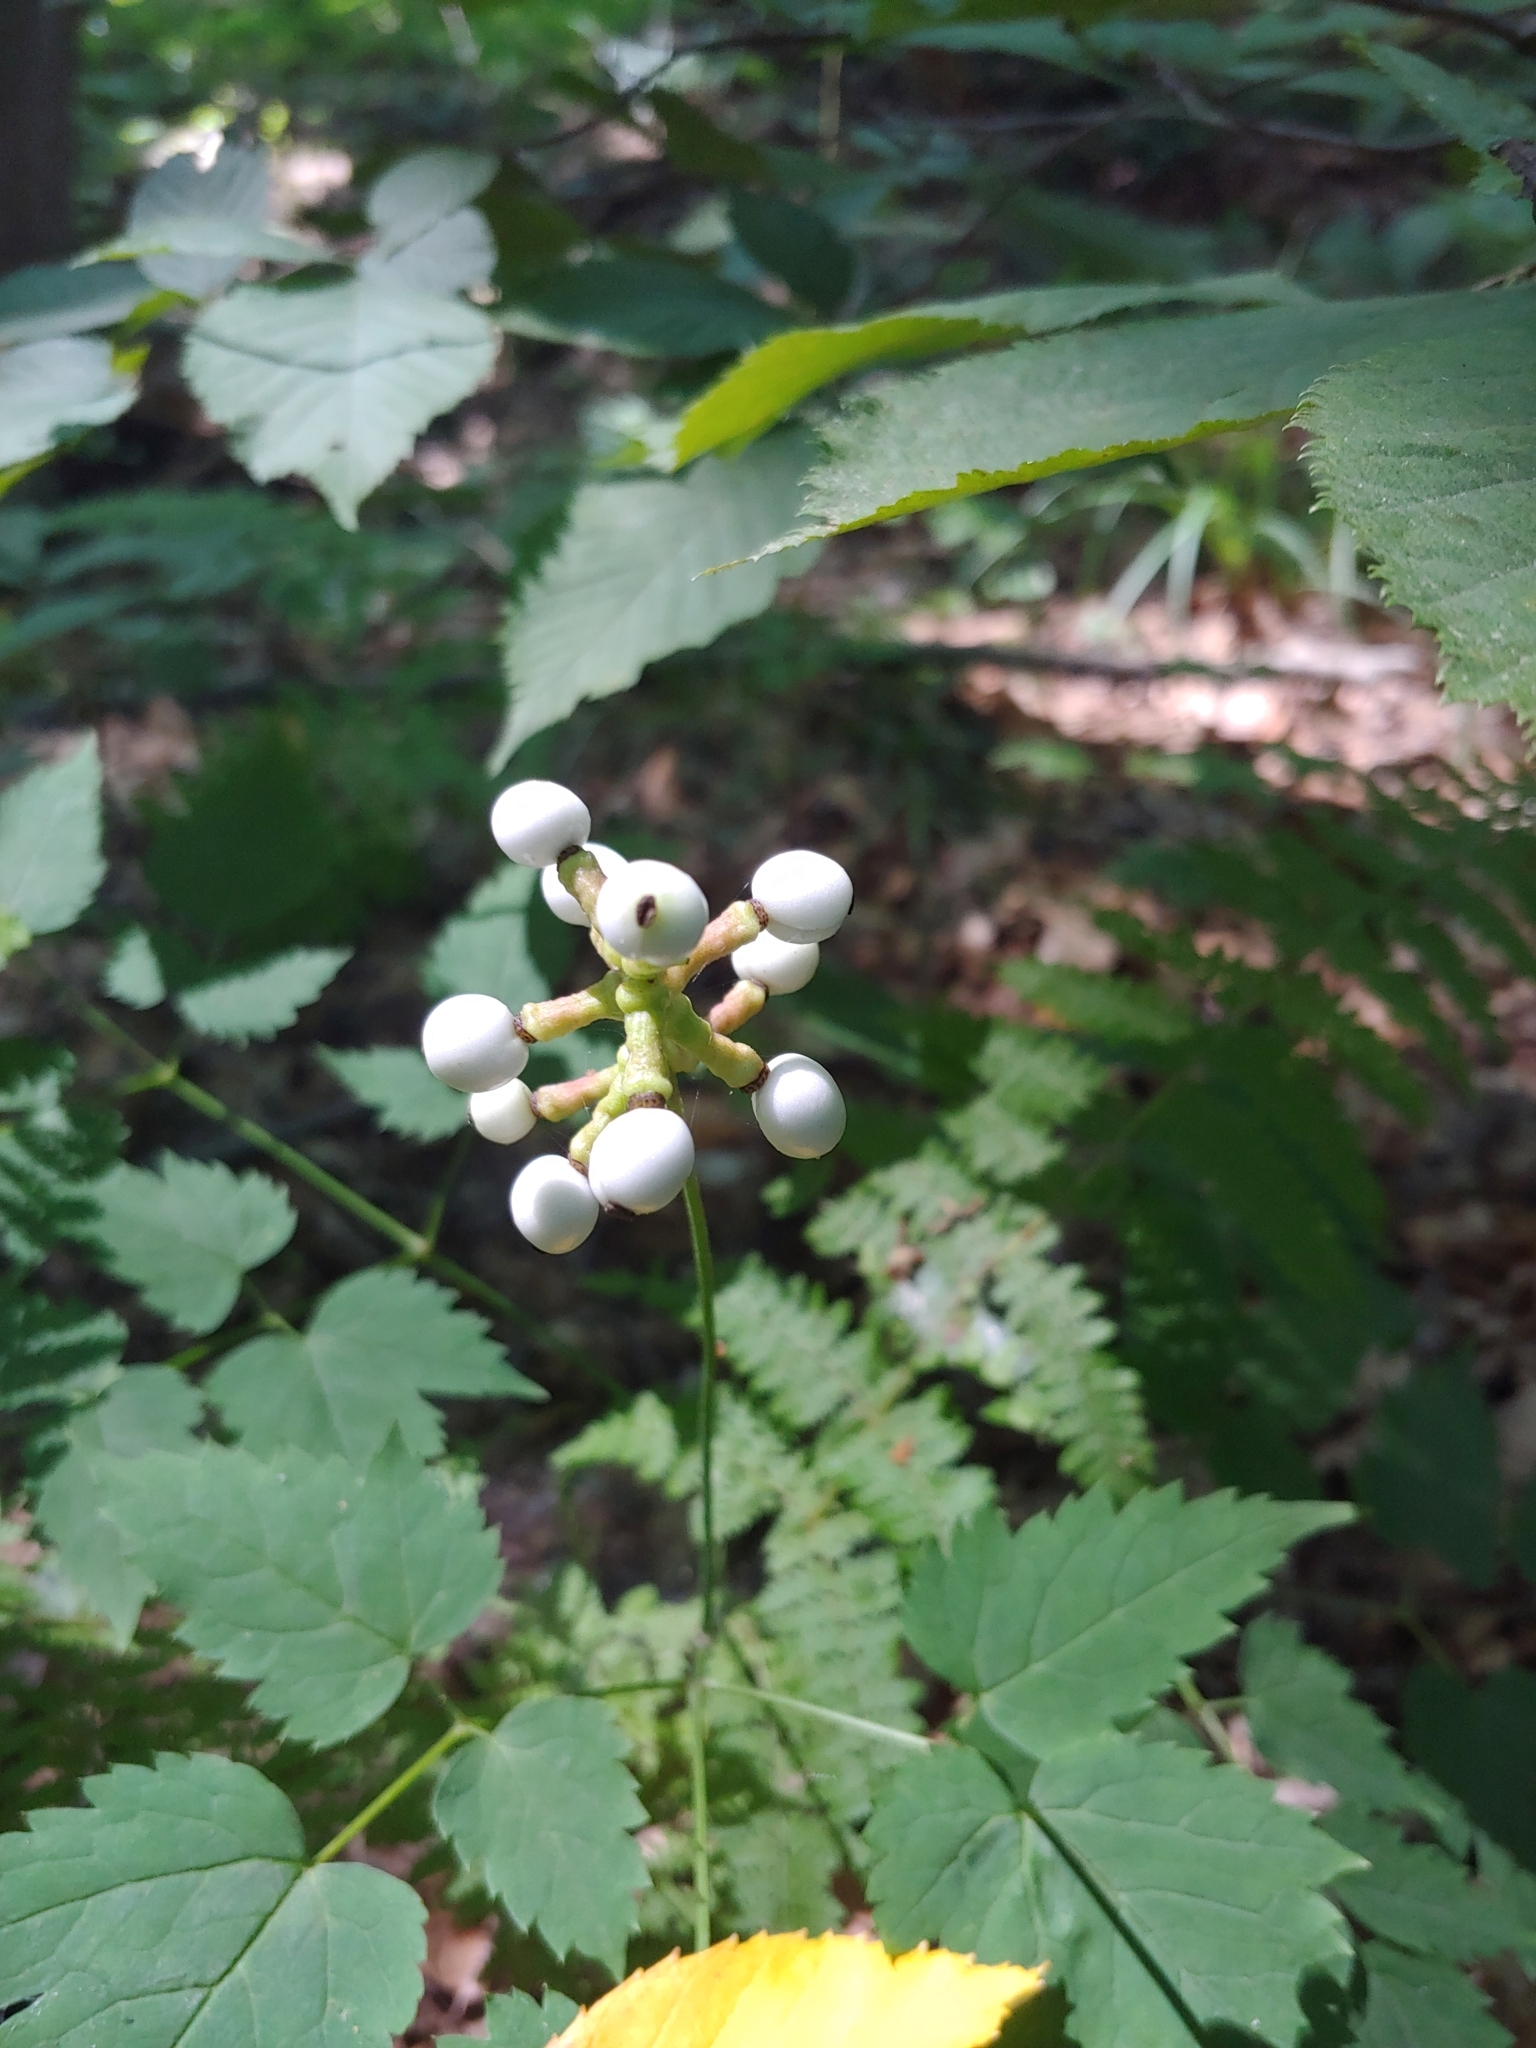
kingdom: Plantae
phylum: Tracheophyta
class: Magnoliopsida
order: Ranunculales
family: Ranunculaceae
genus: Actaea
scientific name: Actaea pachypoda
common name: Doll's-eyes
